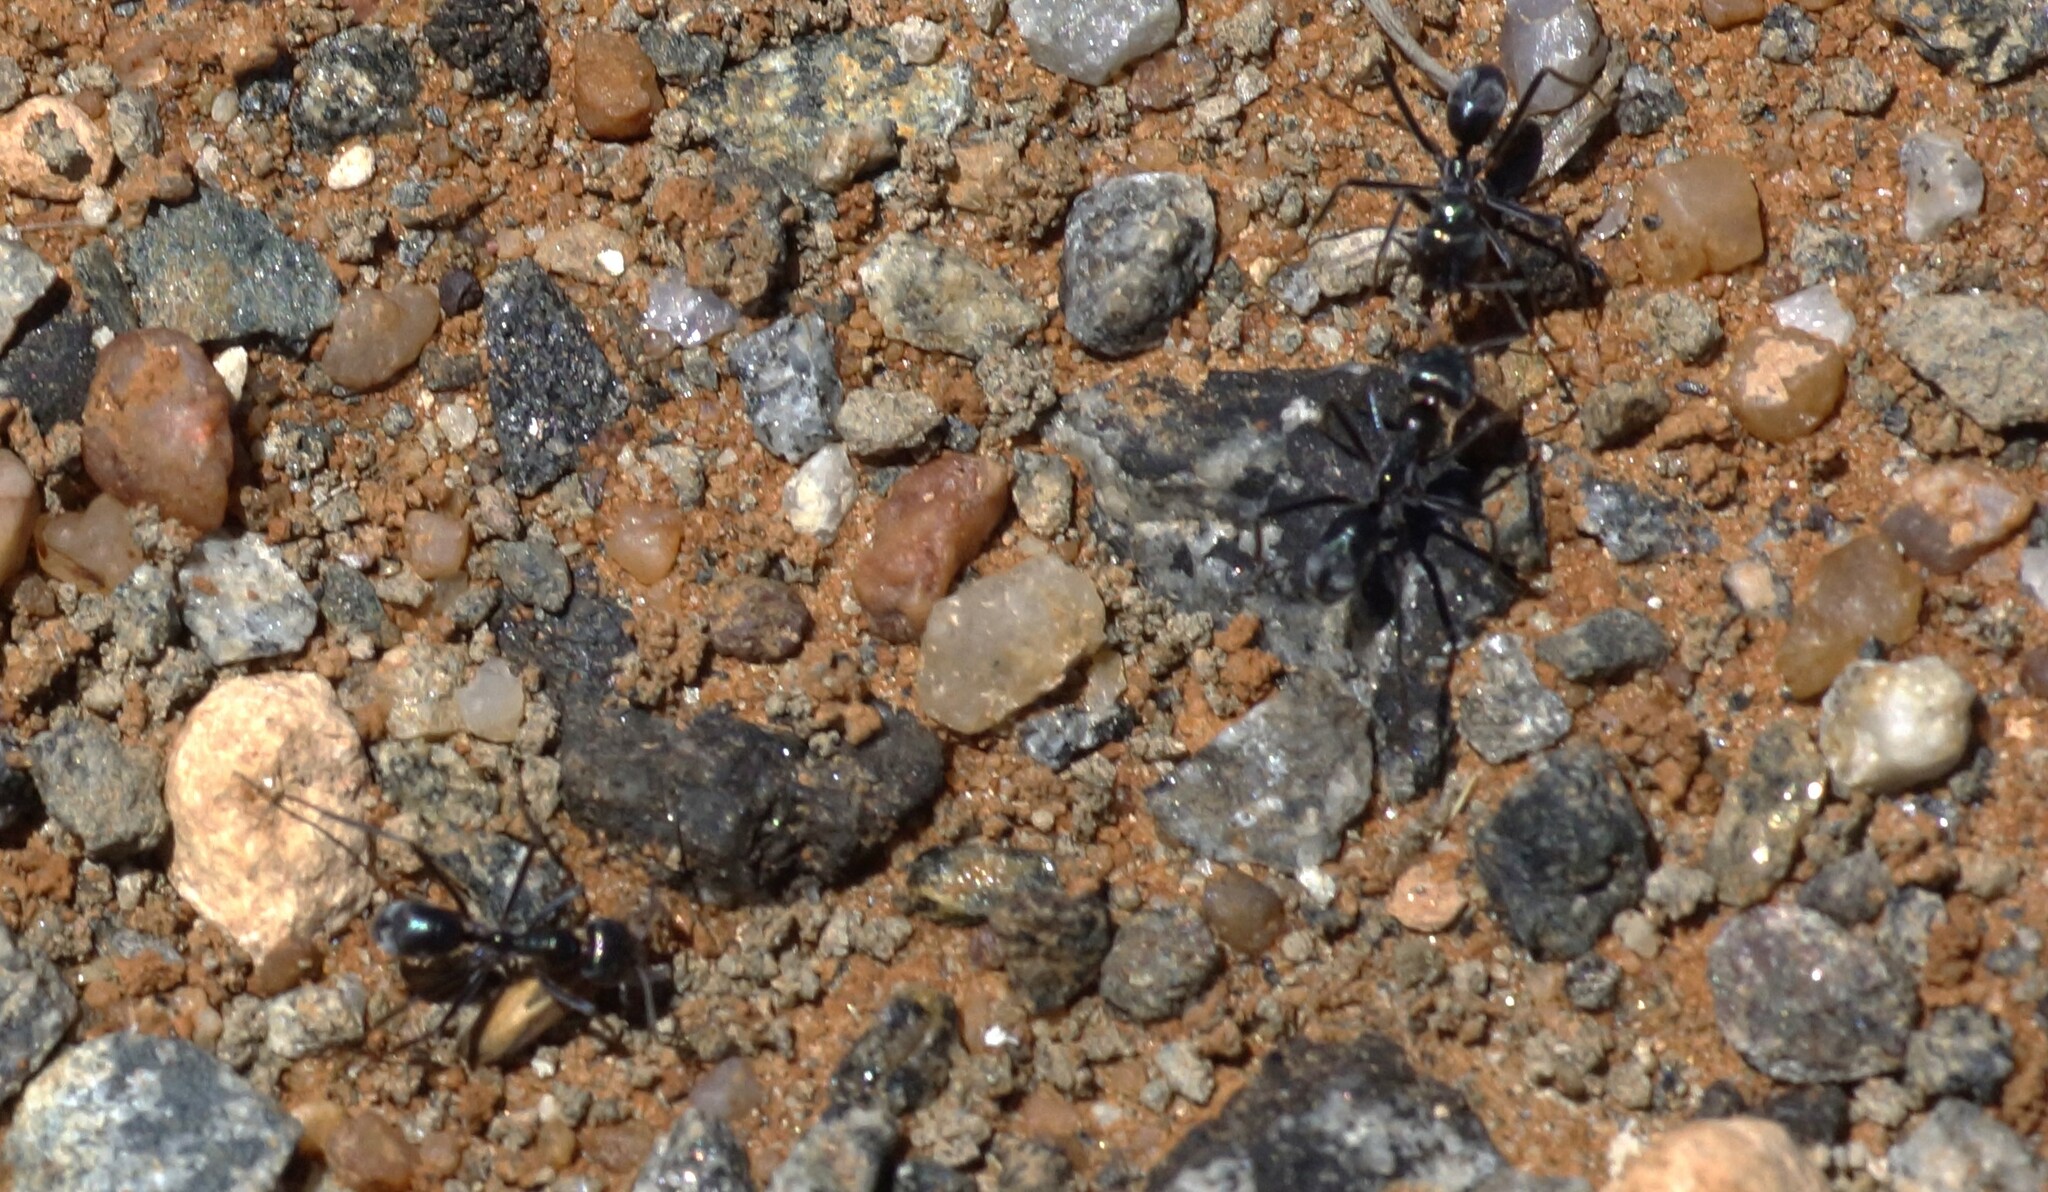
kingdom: Animalia
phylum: Arthropoda
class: Insecta
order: Hymenoptera
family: Formicidae
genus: Iridomyrmex
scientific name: Iridomyrmex viridiaeneus
